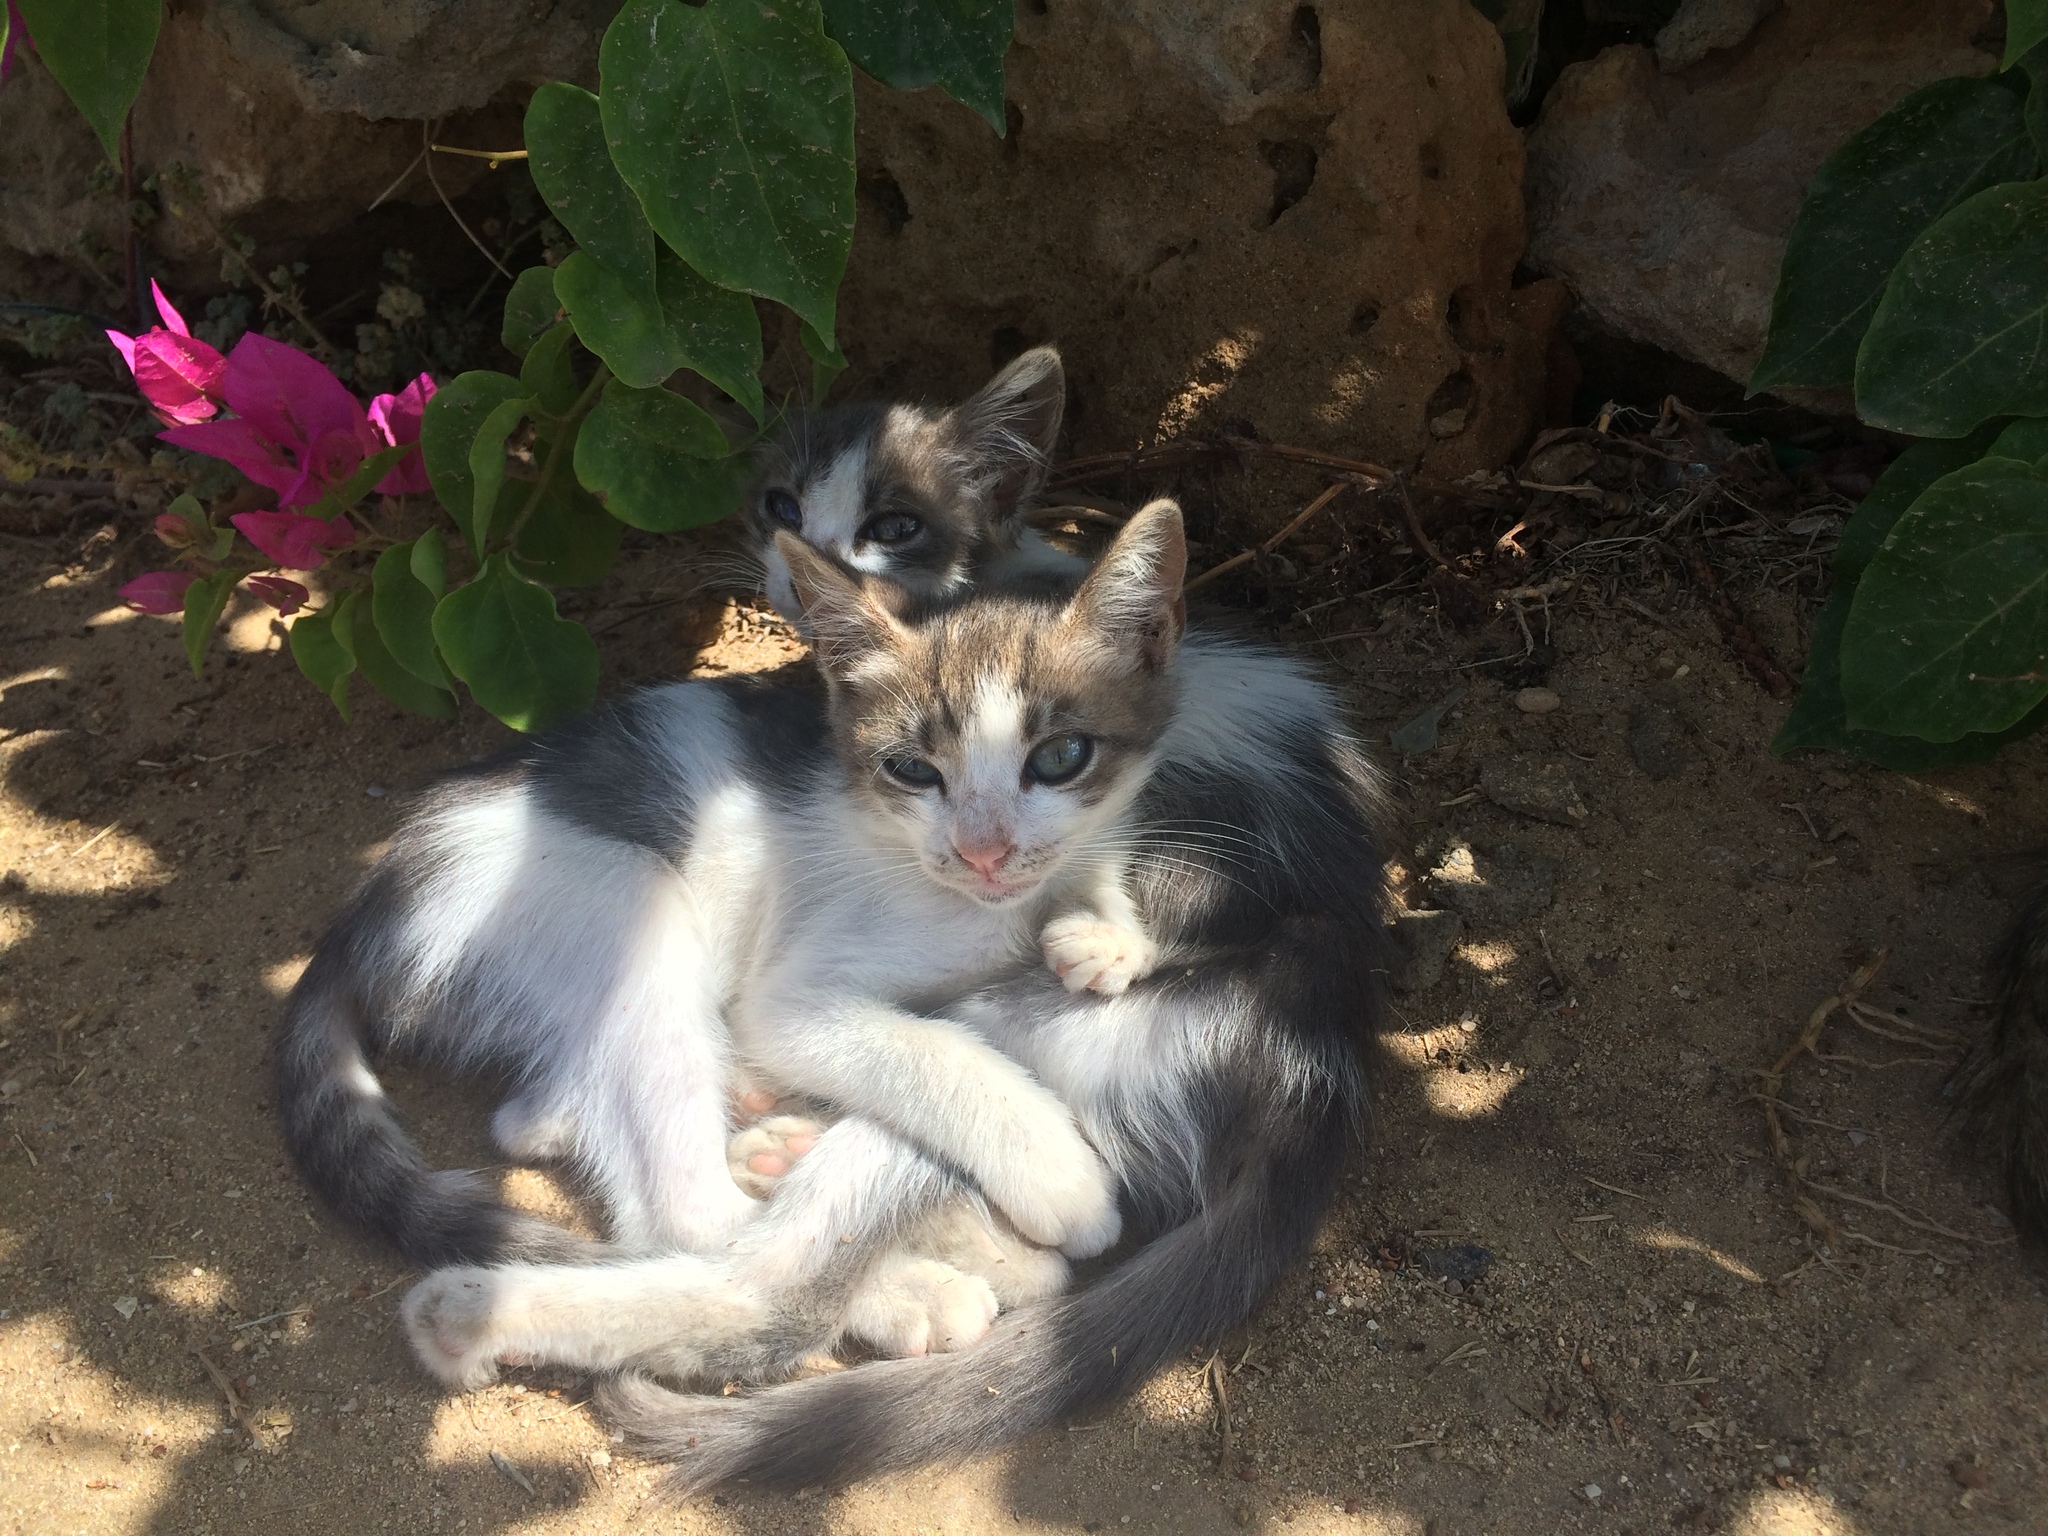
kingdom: Animalia
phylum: Chordata
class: Mammalia
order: Carnivora
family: Felidae
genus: Felis
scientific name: Felis catus
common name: Domestic cat
